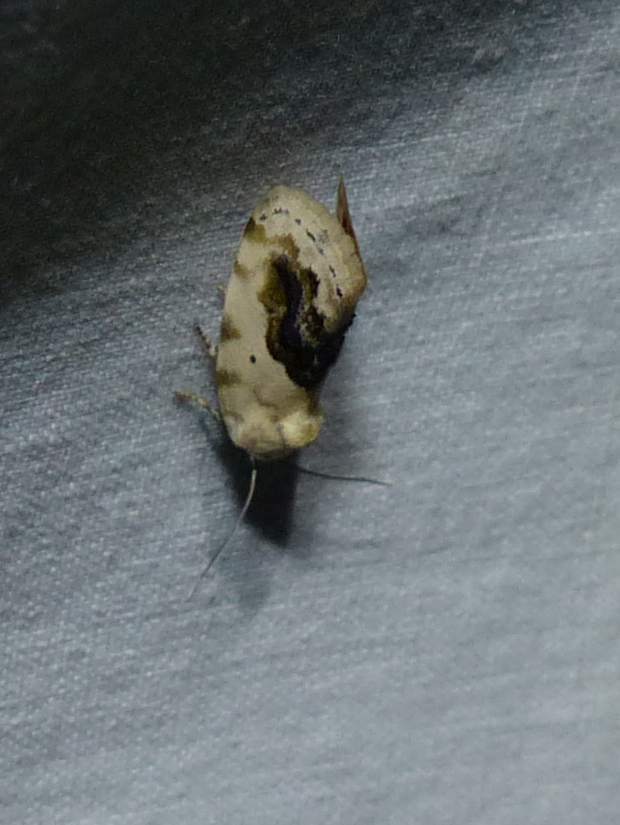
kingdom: Animalia
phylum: Arthropoda
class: Insecta
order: Lepidoptera
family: Noctuidae
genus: Acontia
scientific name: Acontia erastrioides
